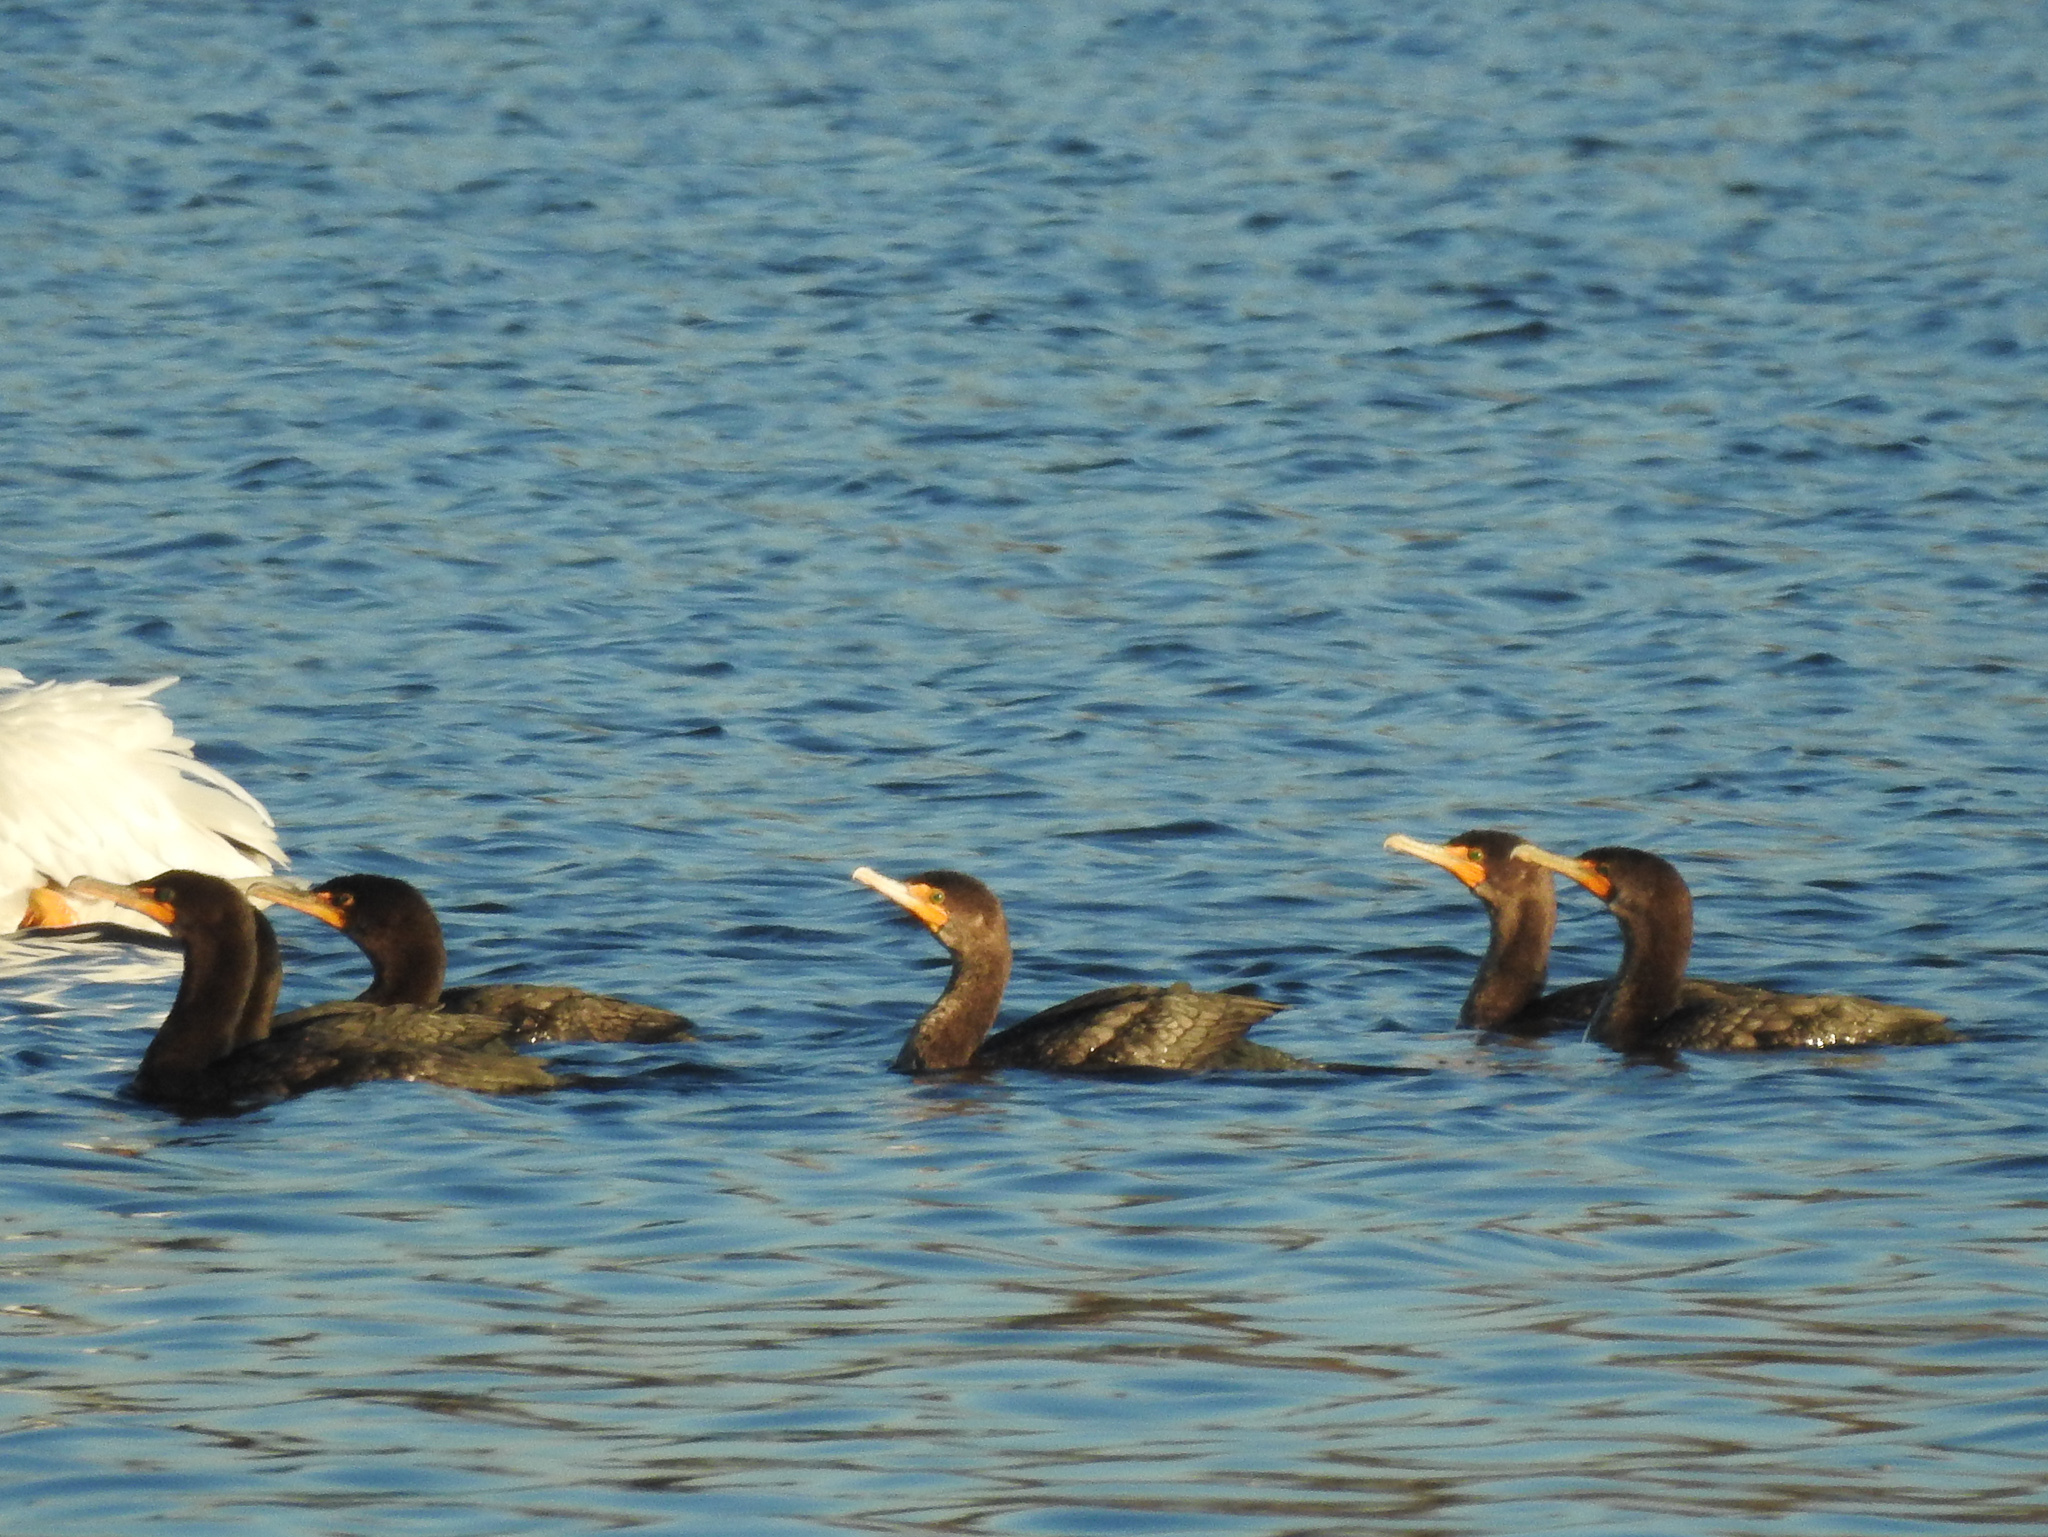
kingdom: Animalia
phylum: Chordata
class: Aves
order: Suliformes
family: Phalacrocoracidae
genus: Phalacrocorax
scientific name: Phalacrocorax auritus
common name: Double-crested cormorant
